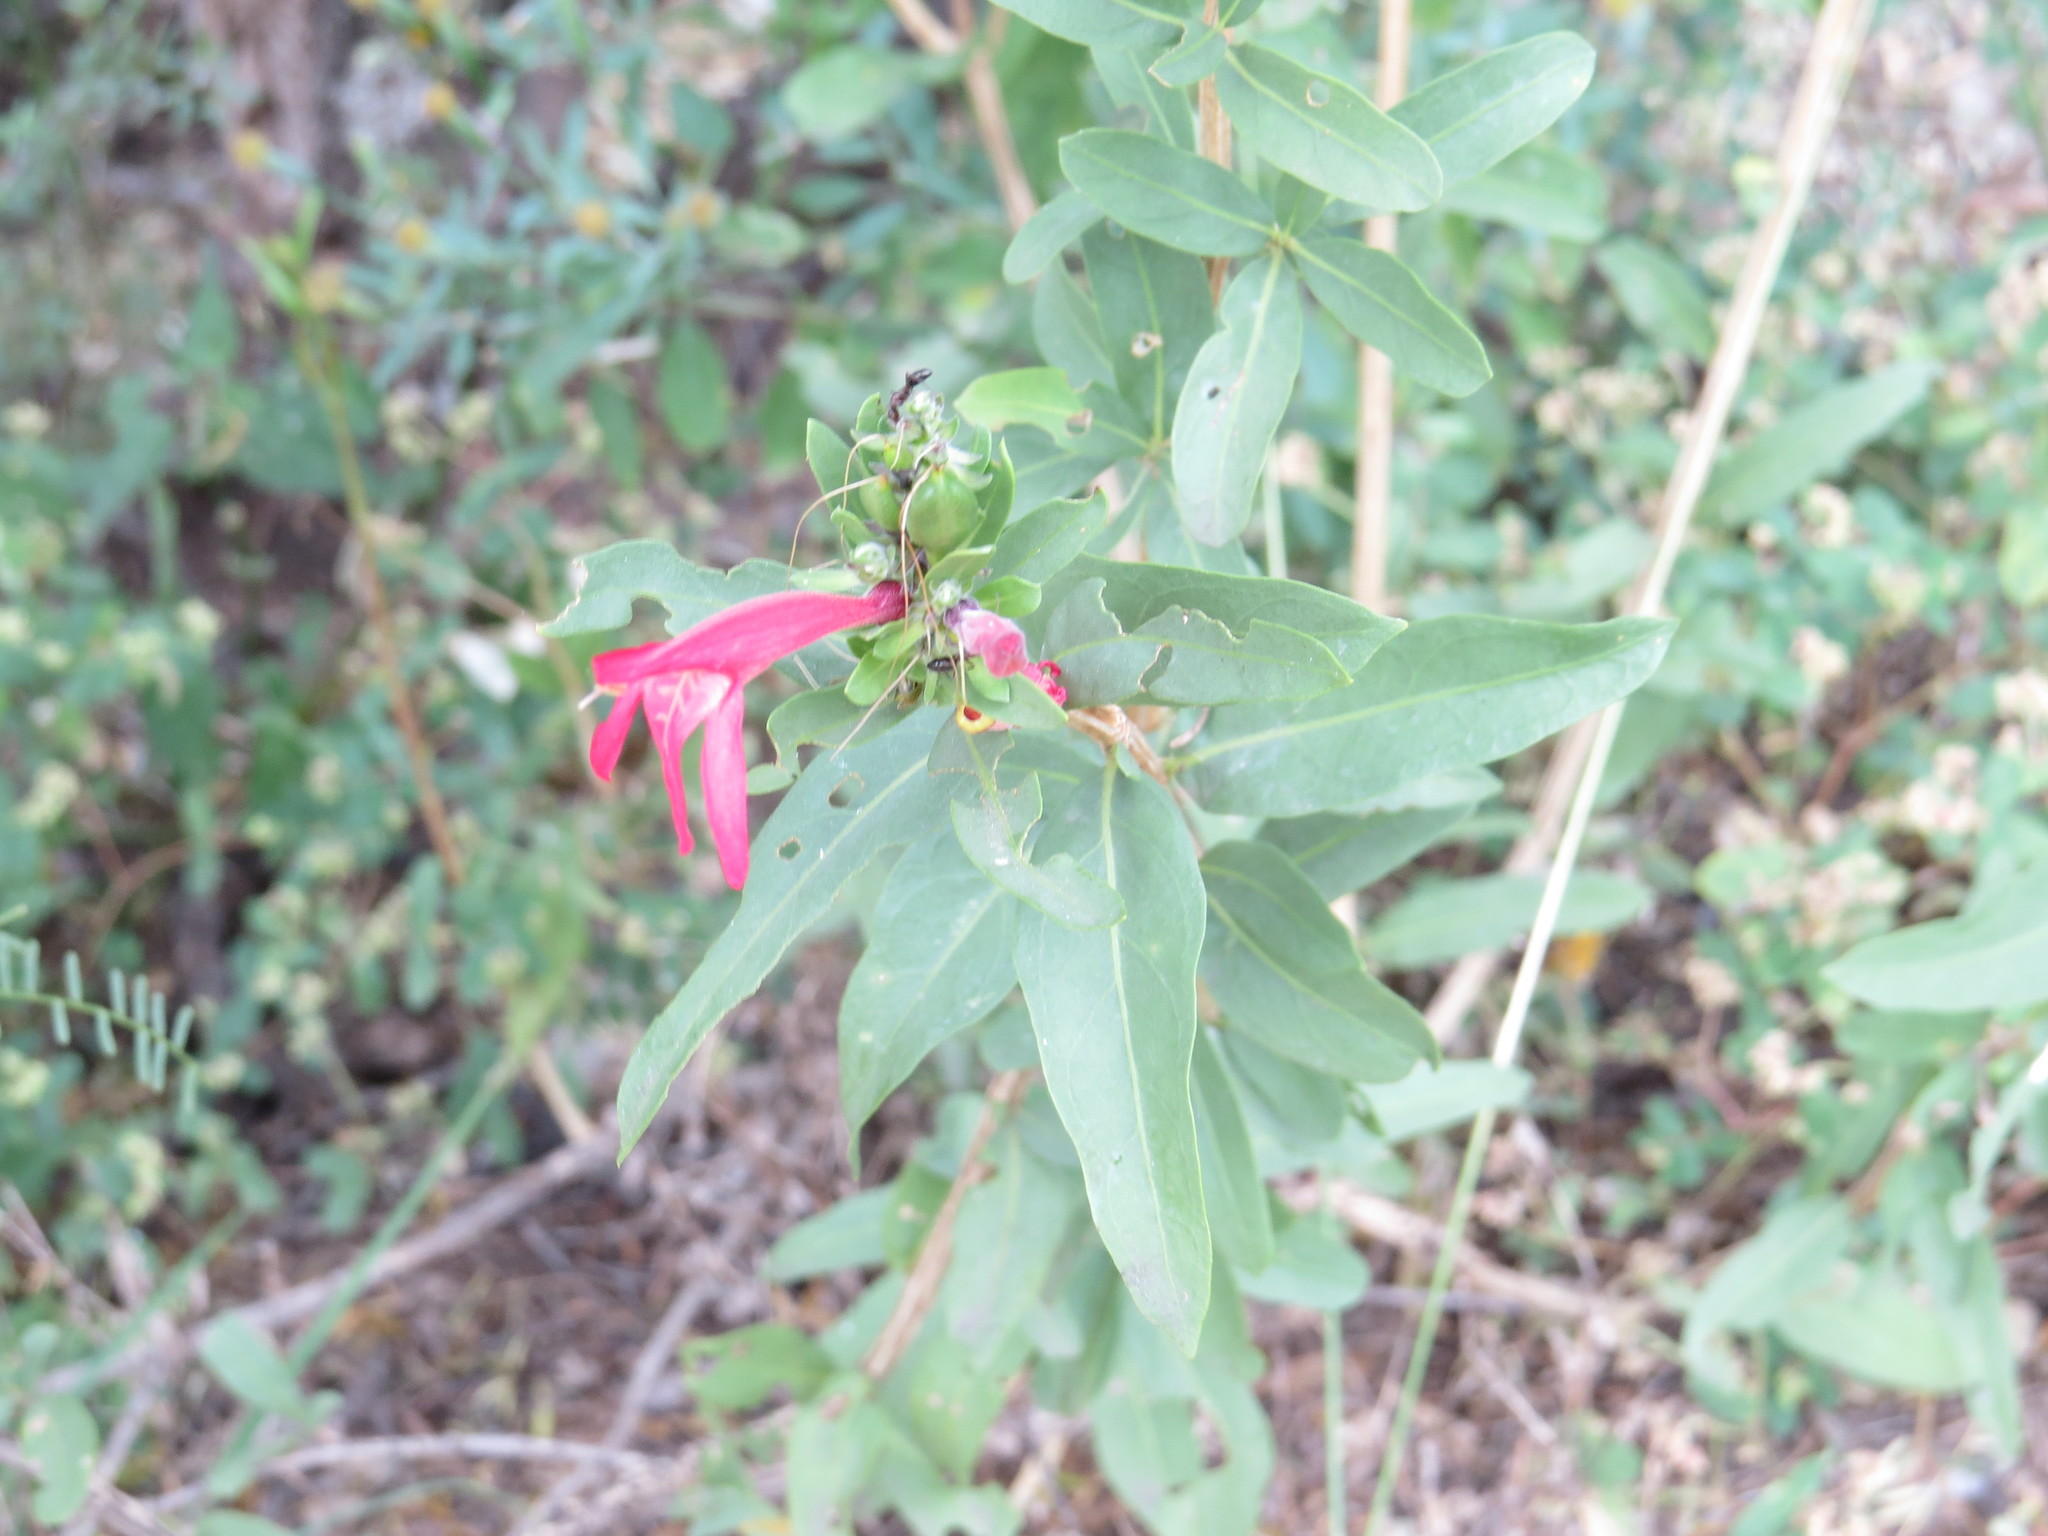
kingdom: Plantae
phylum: Tracheophyta
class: Magnoliopsida
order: Lamiales
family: Acanthaceae
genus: Justicia
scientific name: Justicia xylosteoides
